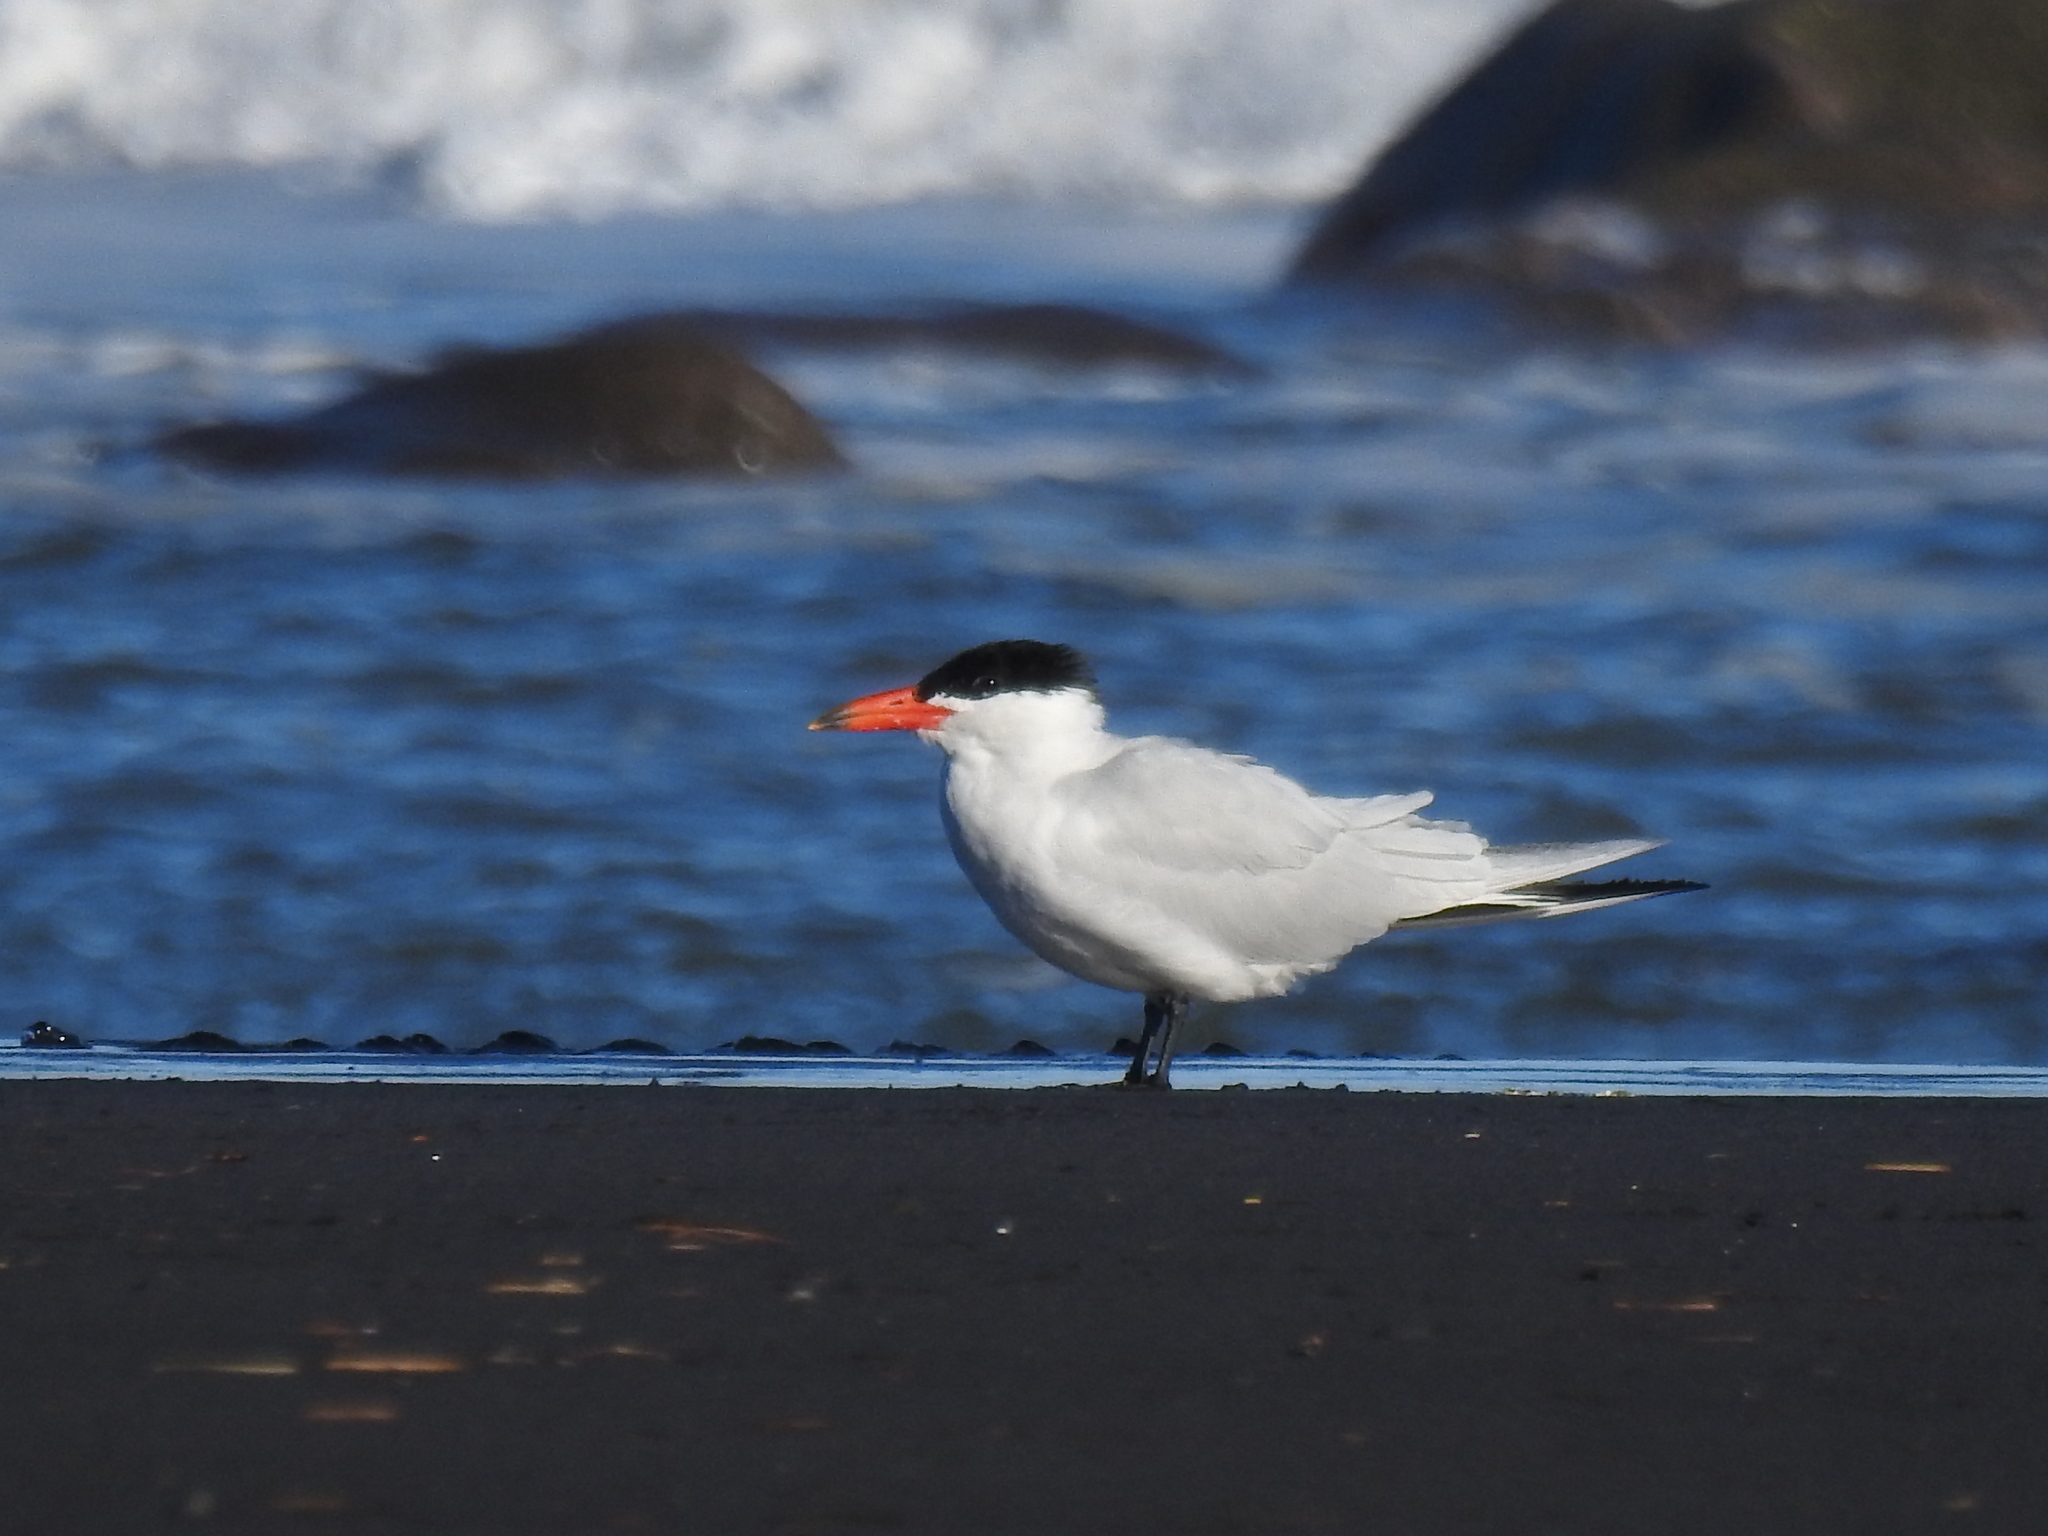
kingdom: Animalia
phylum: Chordata
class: Aves
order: Charadriiformes
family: Laridae
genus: Hydroprogne
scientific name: Hydroprogne caspia
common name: Caspian tern
